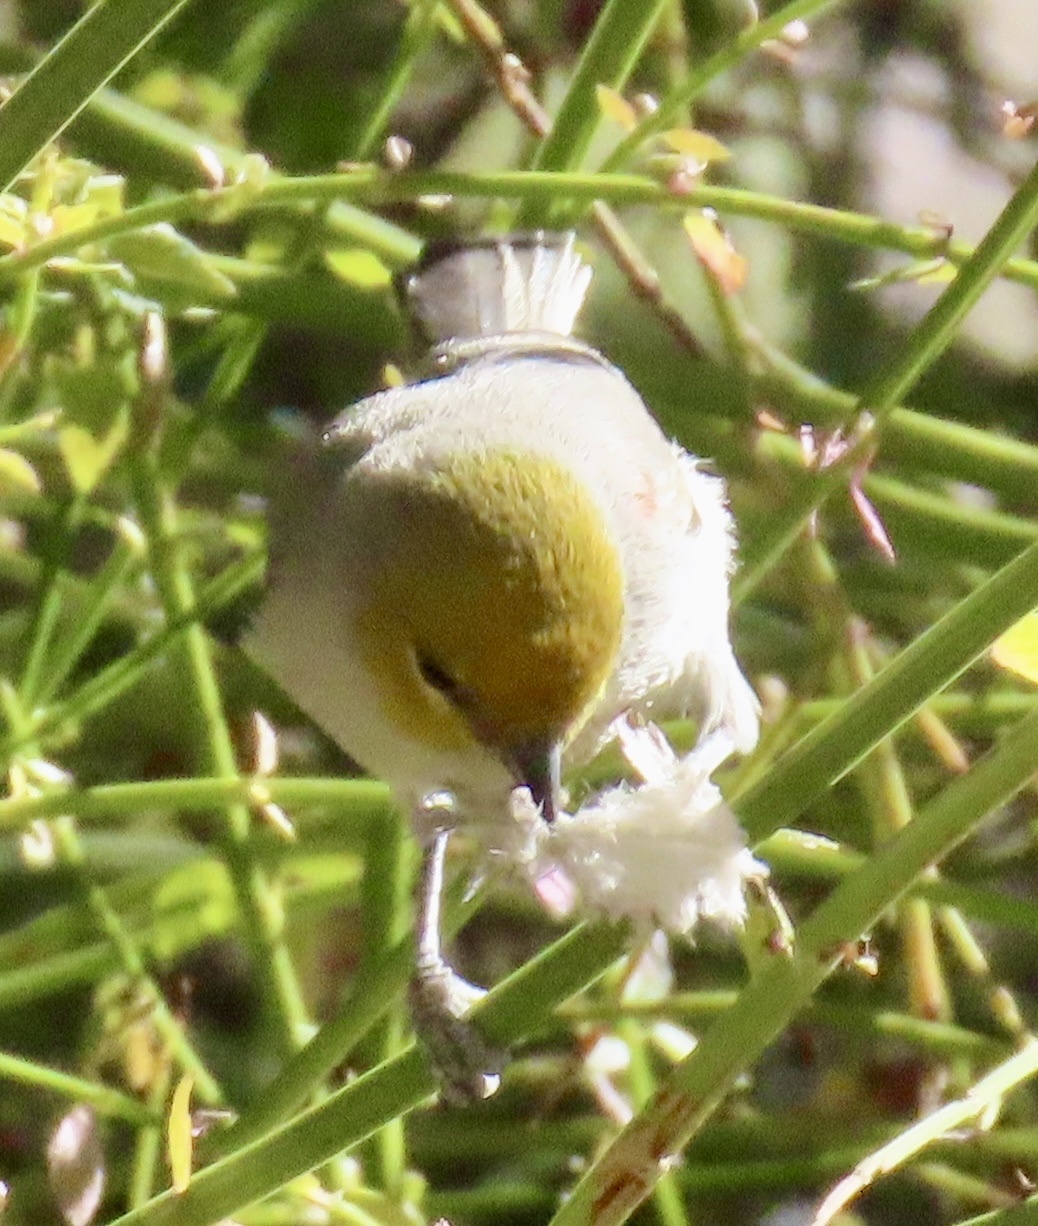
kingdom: Animalia
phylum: Chordata
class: Aves
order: Passeriformes
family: Remizidae
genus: Auriparus
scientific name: Auriparus flaviceps
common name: Verdin
